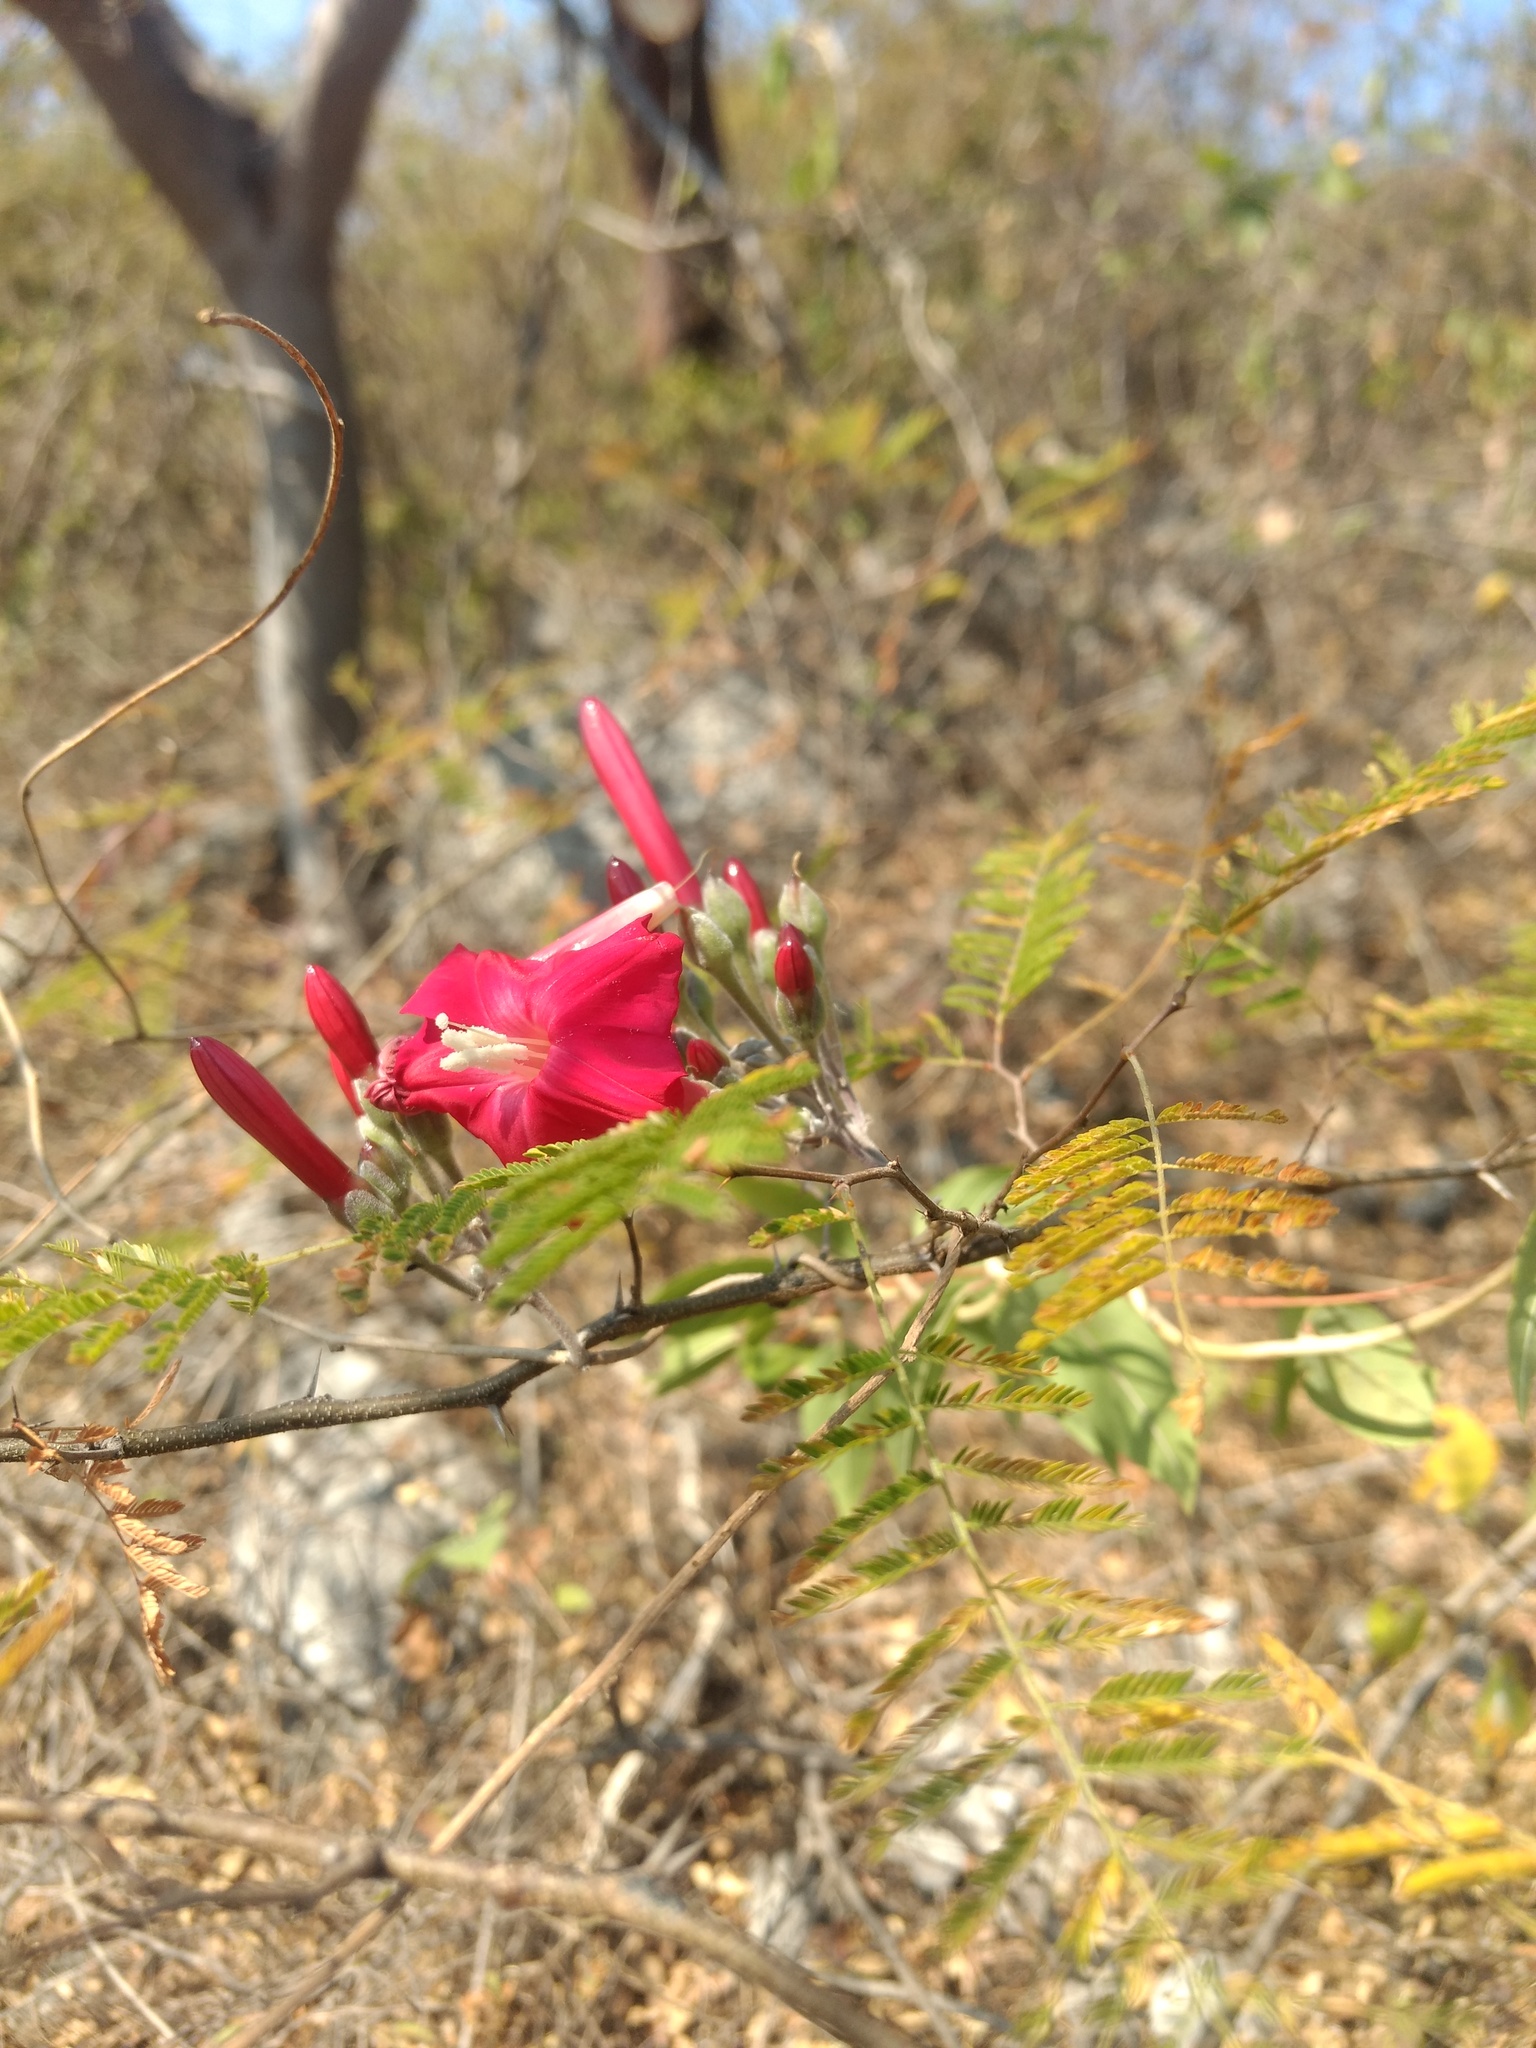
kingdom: Plantae
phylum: Tracheophyta
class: Magnoliopsida
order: Solanales
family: Convolvulaceae
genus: Ipomoea
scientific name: Ipomoea conzattii
